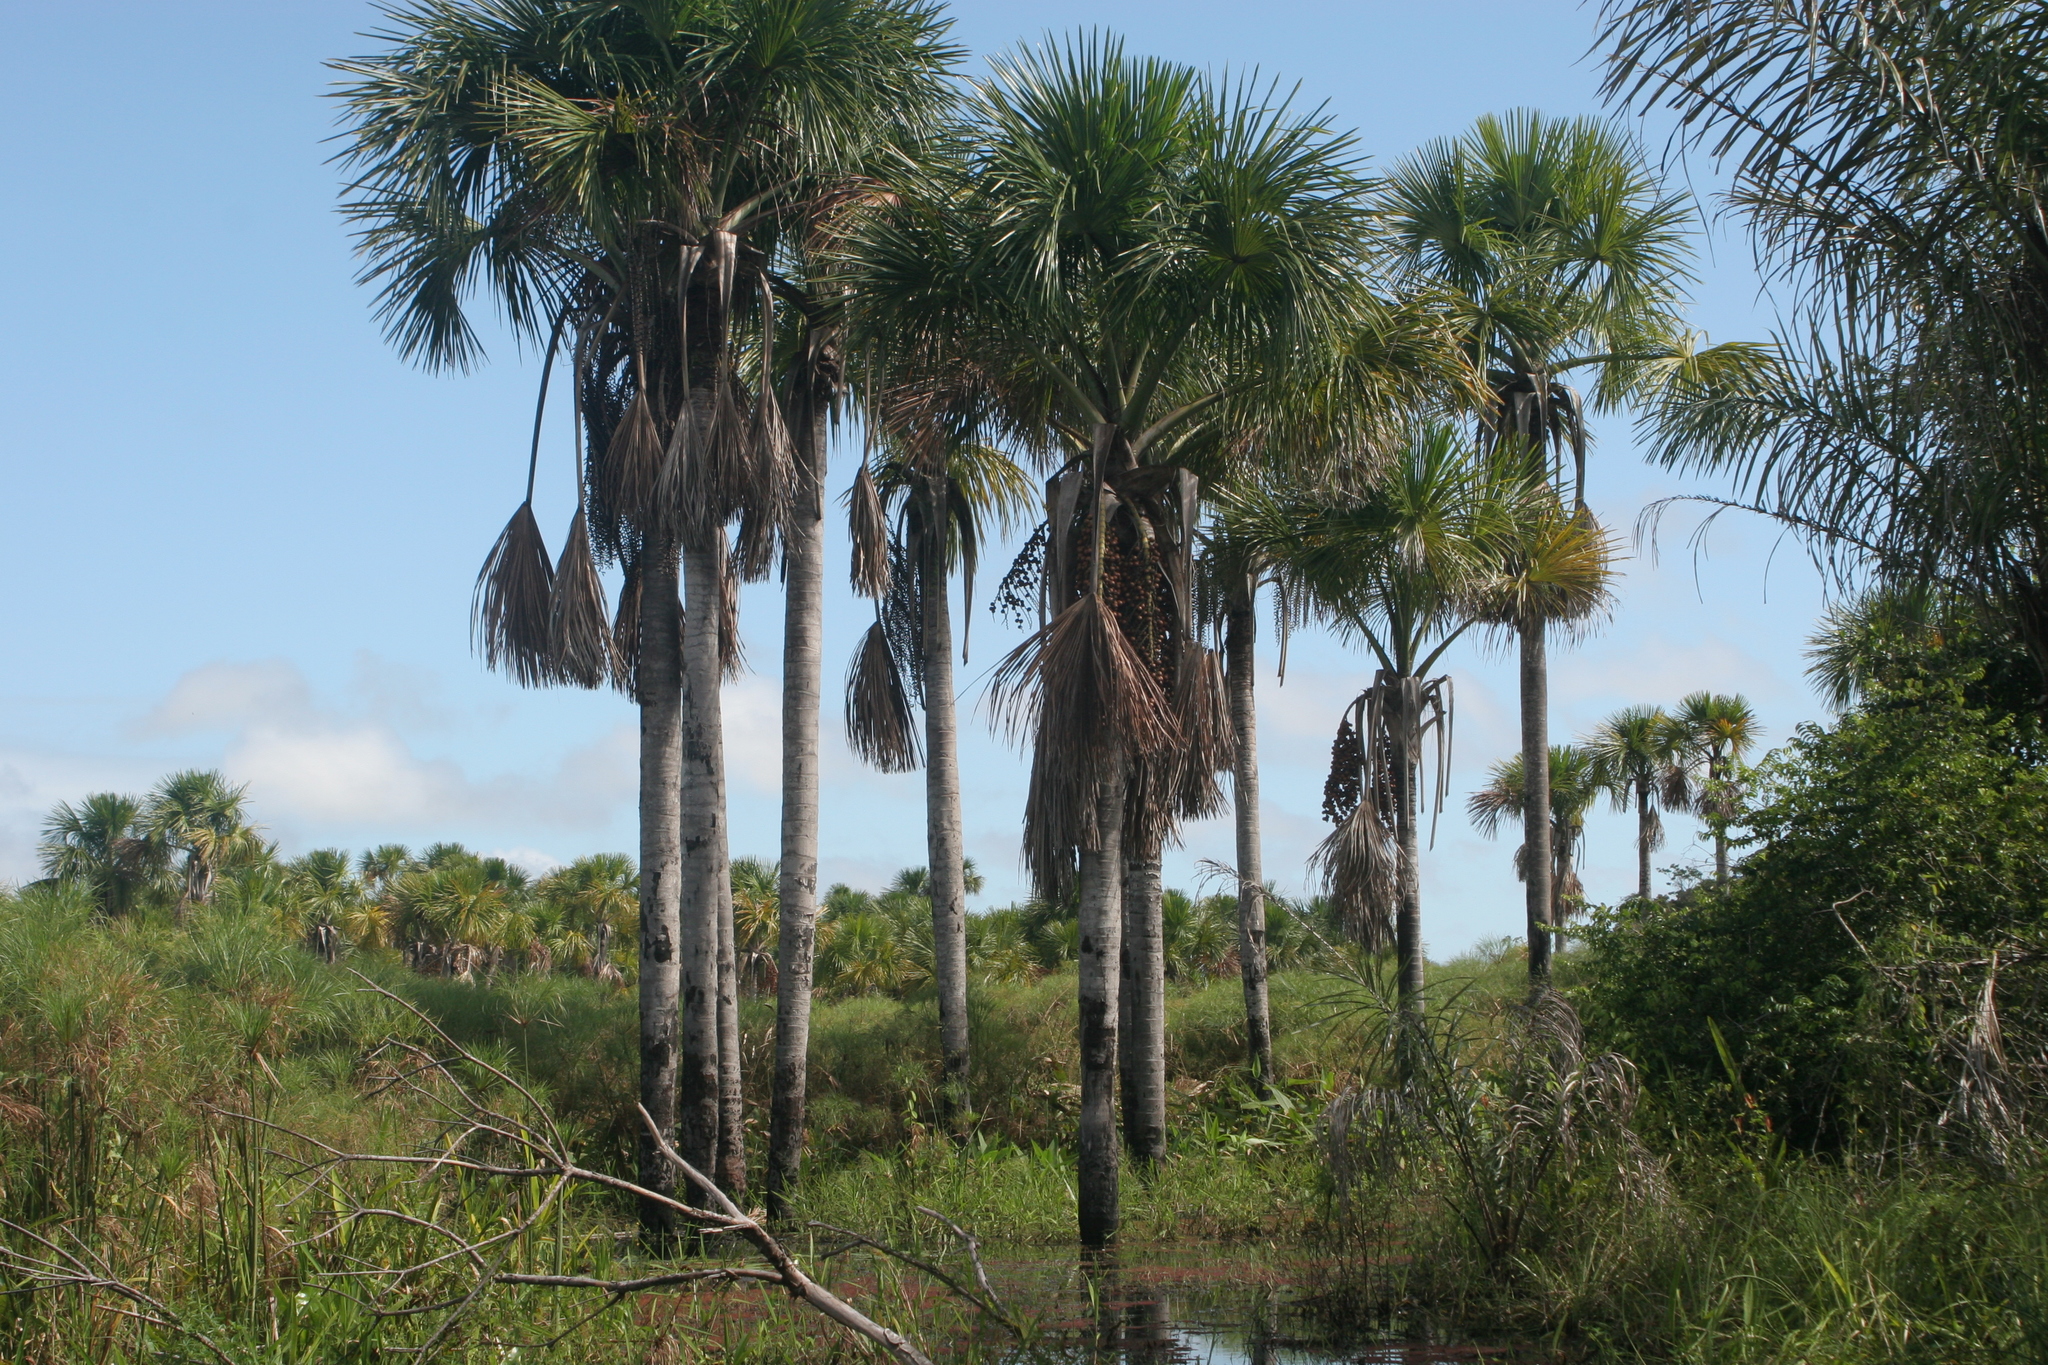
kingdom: Plantae
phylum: Tracheophyta
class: Liliopsida
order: Arecales
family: Arecaceae
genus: Mauritia
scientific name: Mauritia flexuosa
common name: Tree-of-life
